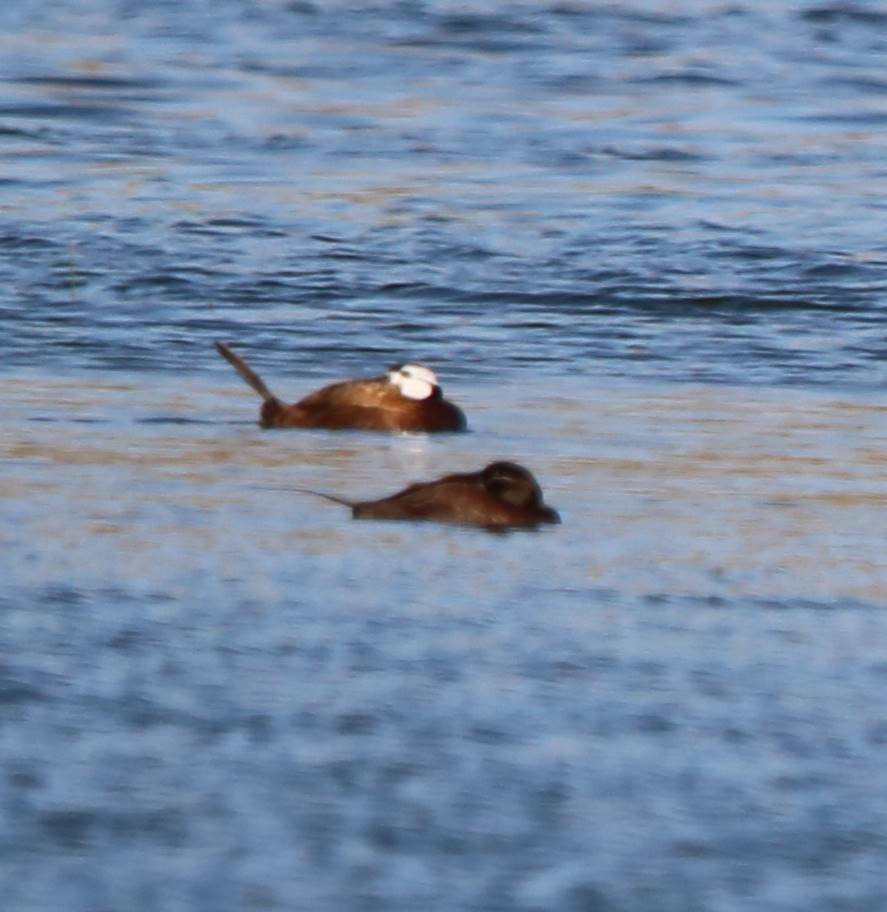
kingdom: Animalia
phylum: Chordata
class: Aves
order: Anseriformes
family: Anatidae
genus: Oxyura
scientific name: Oxyura leucocephala
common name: White-headed duck
